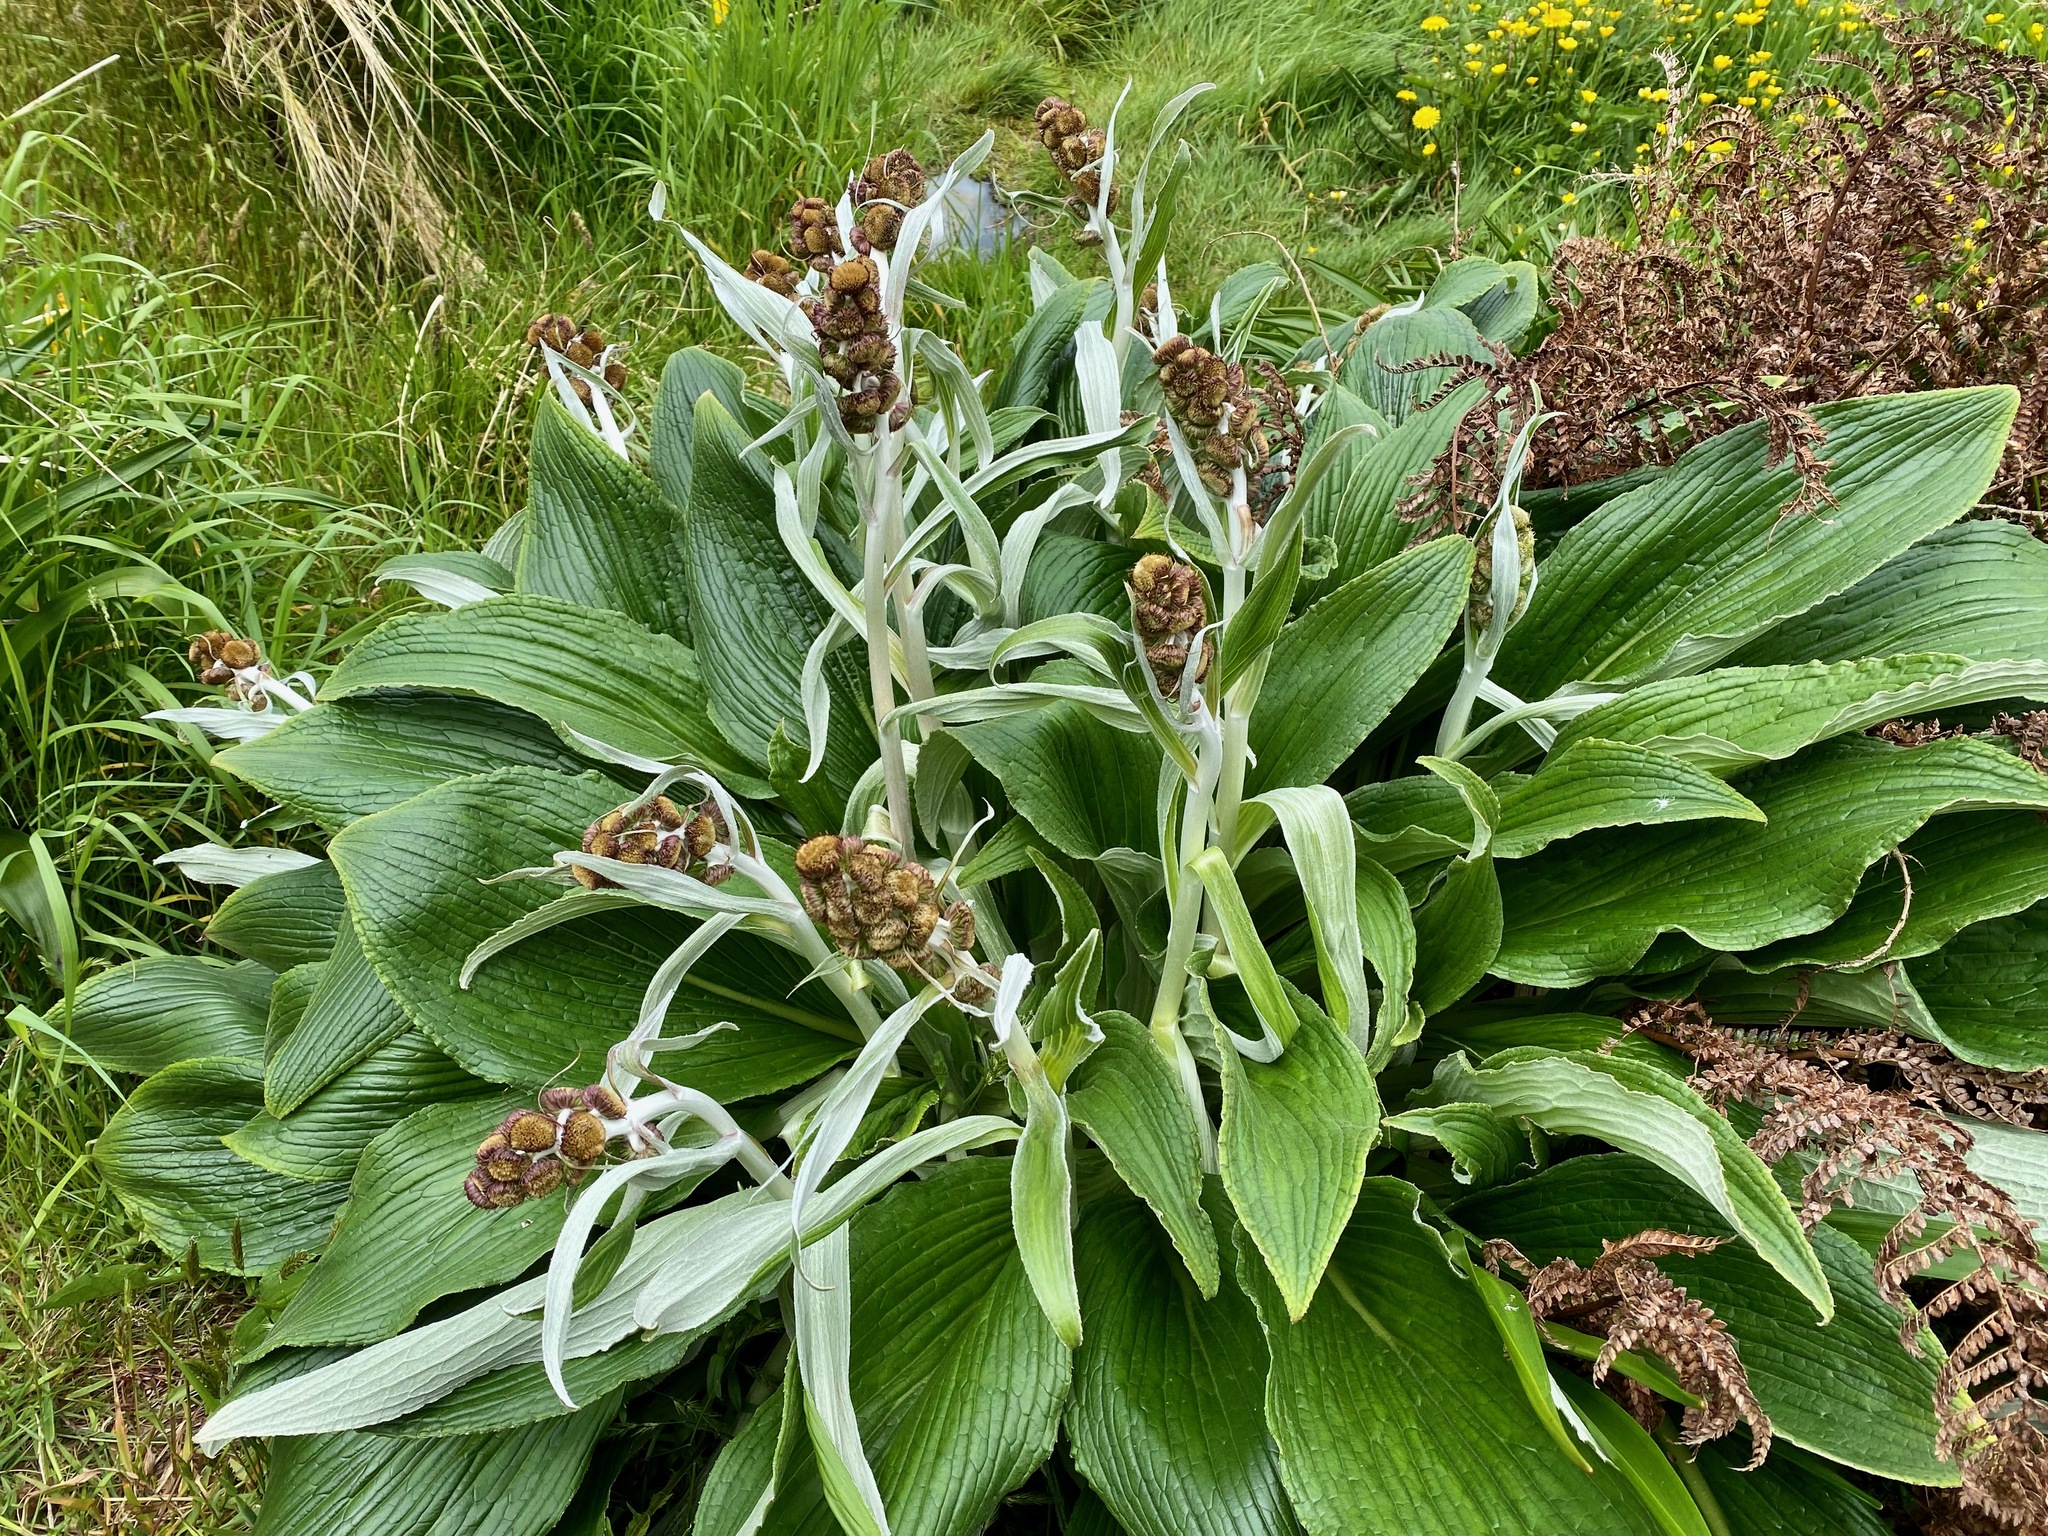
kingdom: Plantae
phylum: Tracheophyta
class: Magnoliopsida
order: Asterales
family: Asteraceae
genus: Pleurophyllum
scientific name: Pleurophyllum criniferum
